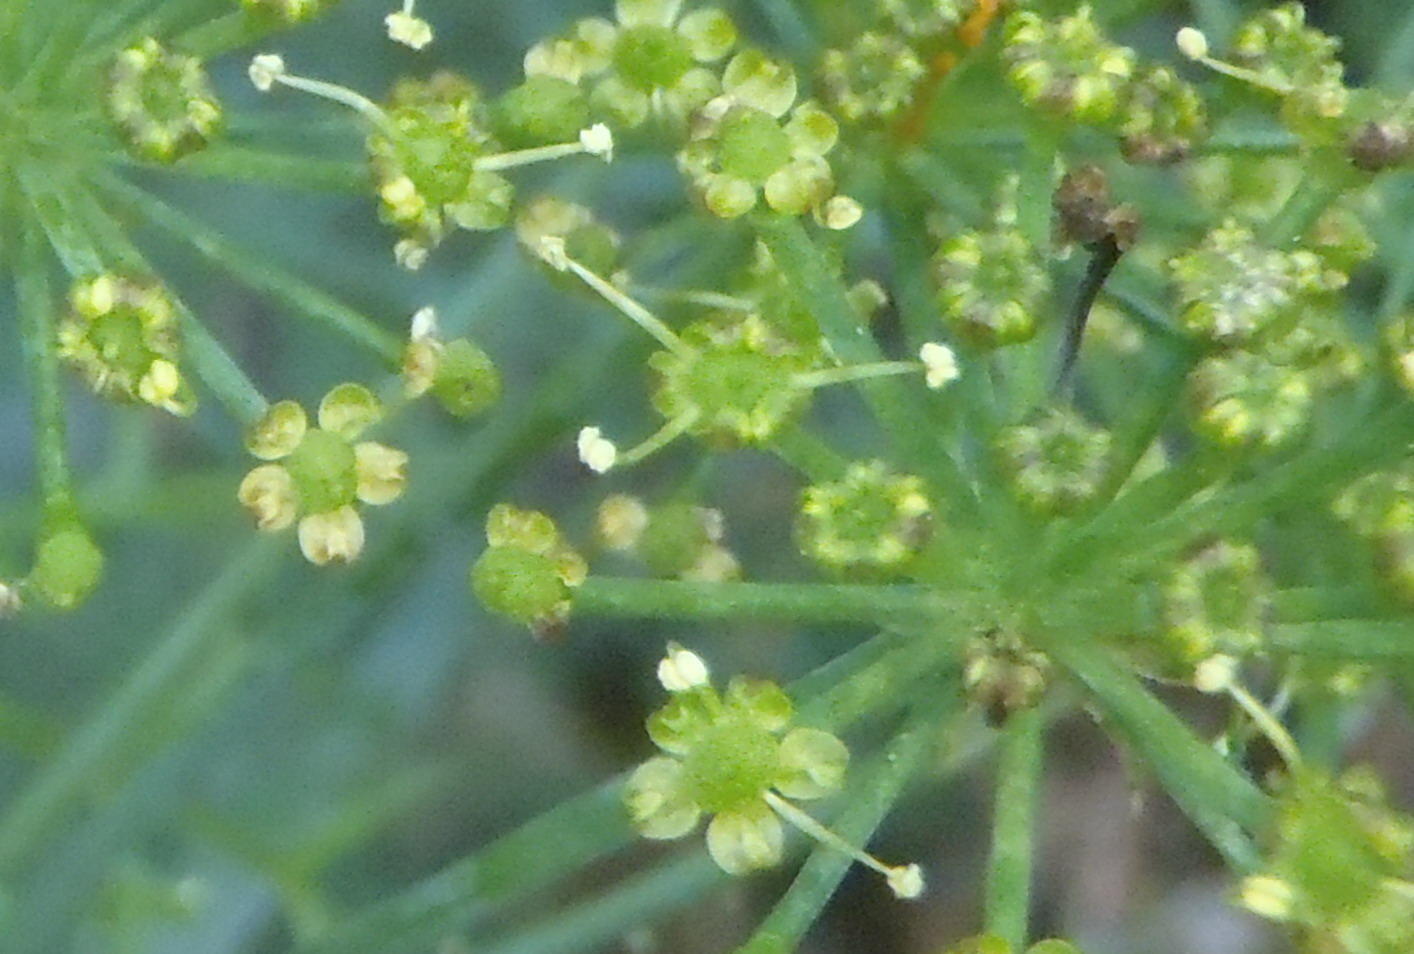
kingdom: Plantae
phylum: Tracheophyta
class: Magnoliopsida
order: Apiales
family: Apiaceae
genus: Notobubon
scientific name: Notobubon tenuifolium
